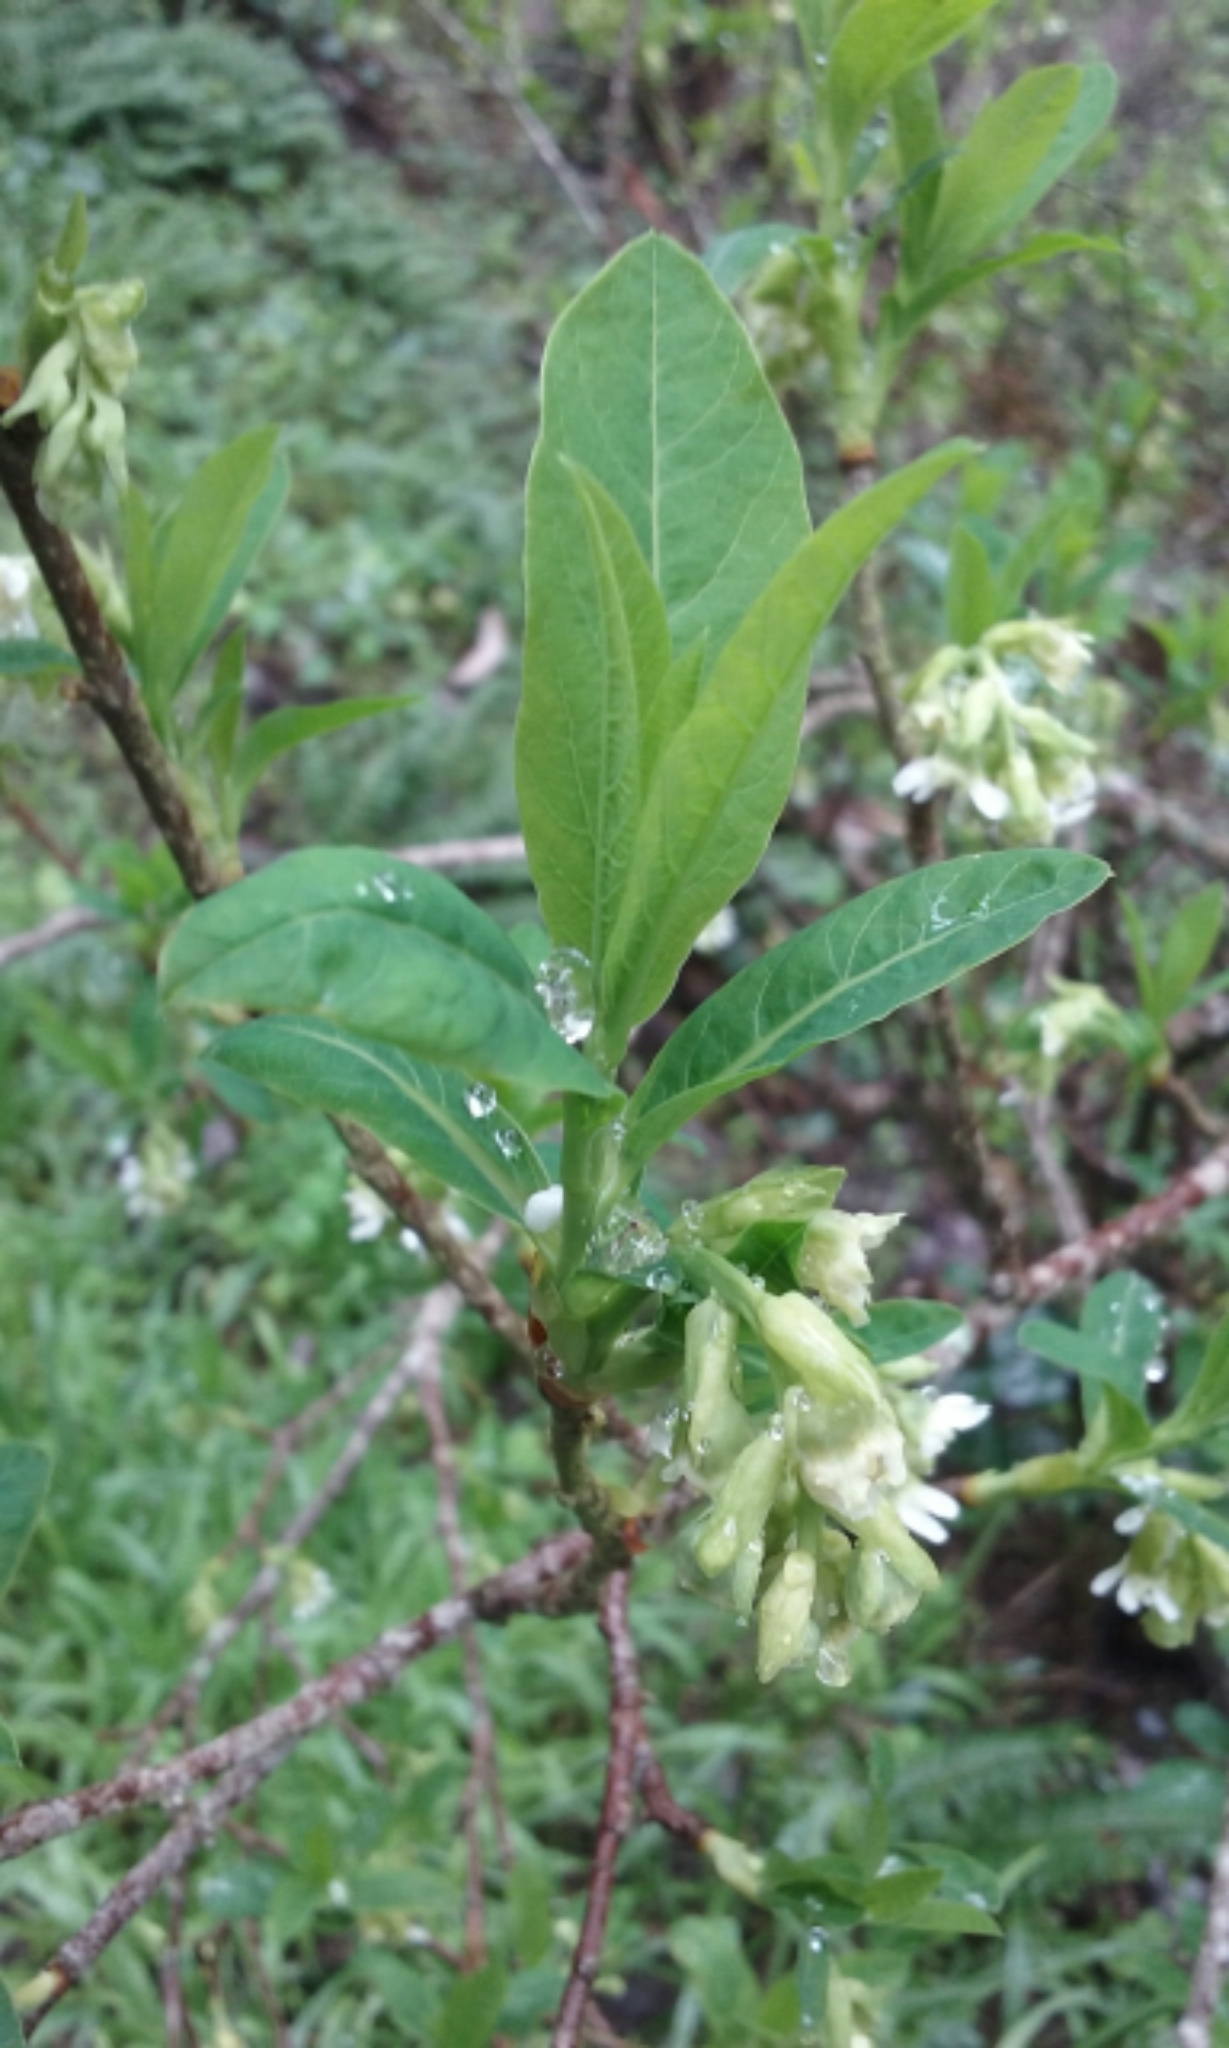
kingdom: Plantae
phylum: Tracheophyta
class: Magnoliopsida
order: Rosales
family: Rosaceae
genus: Oemleria
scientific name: Oemleria cerasiformis
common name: Osoberry
